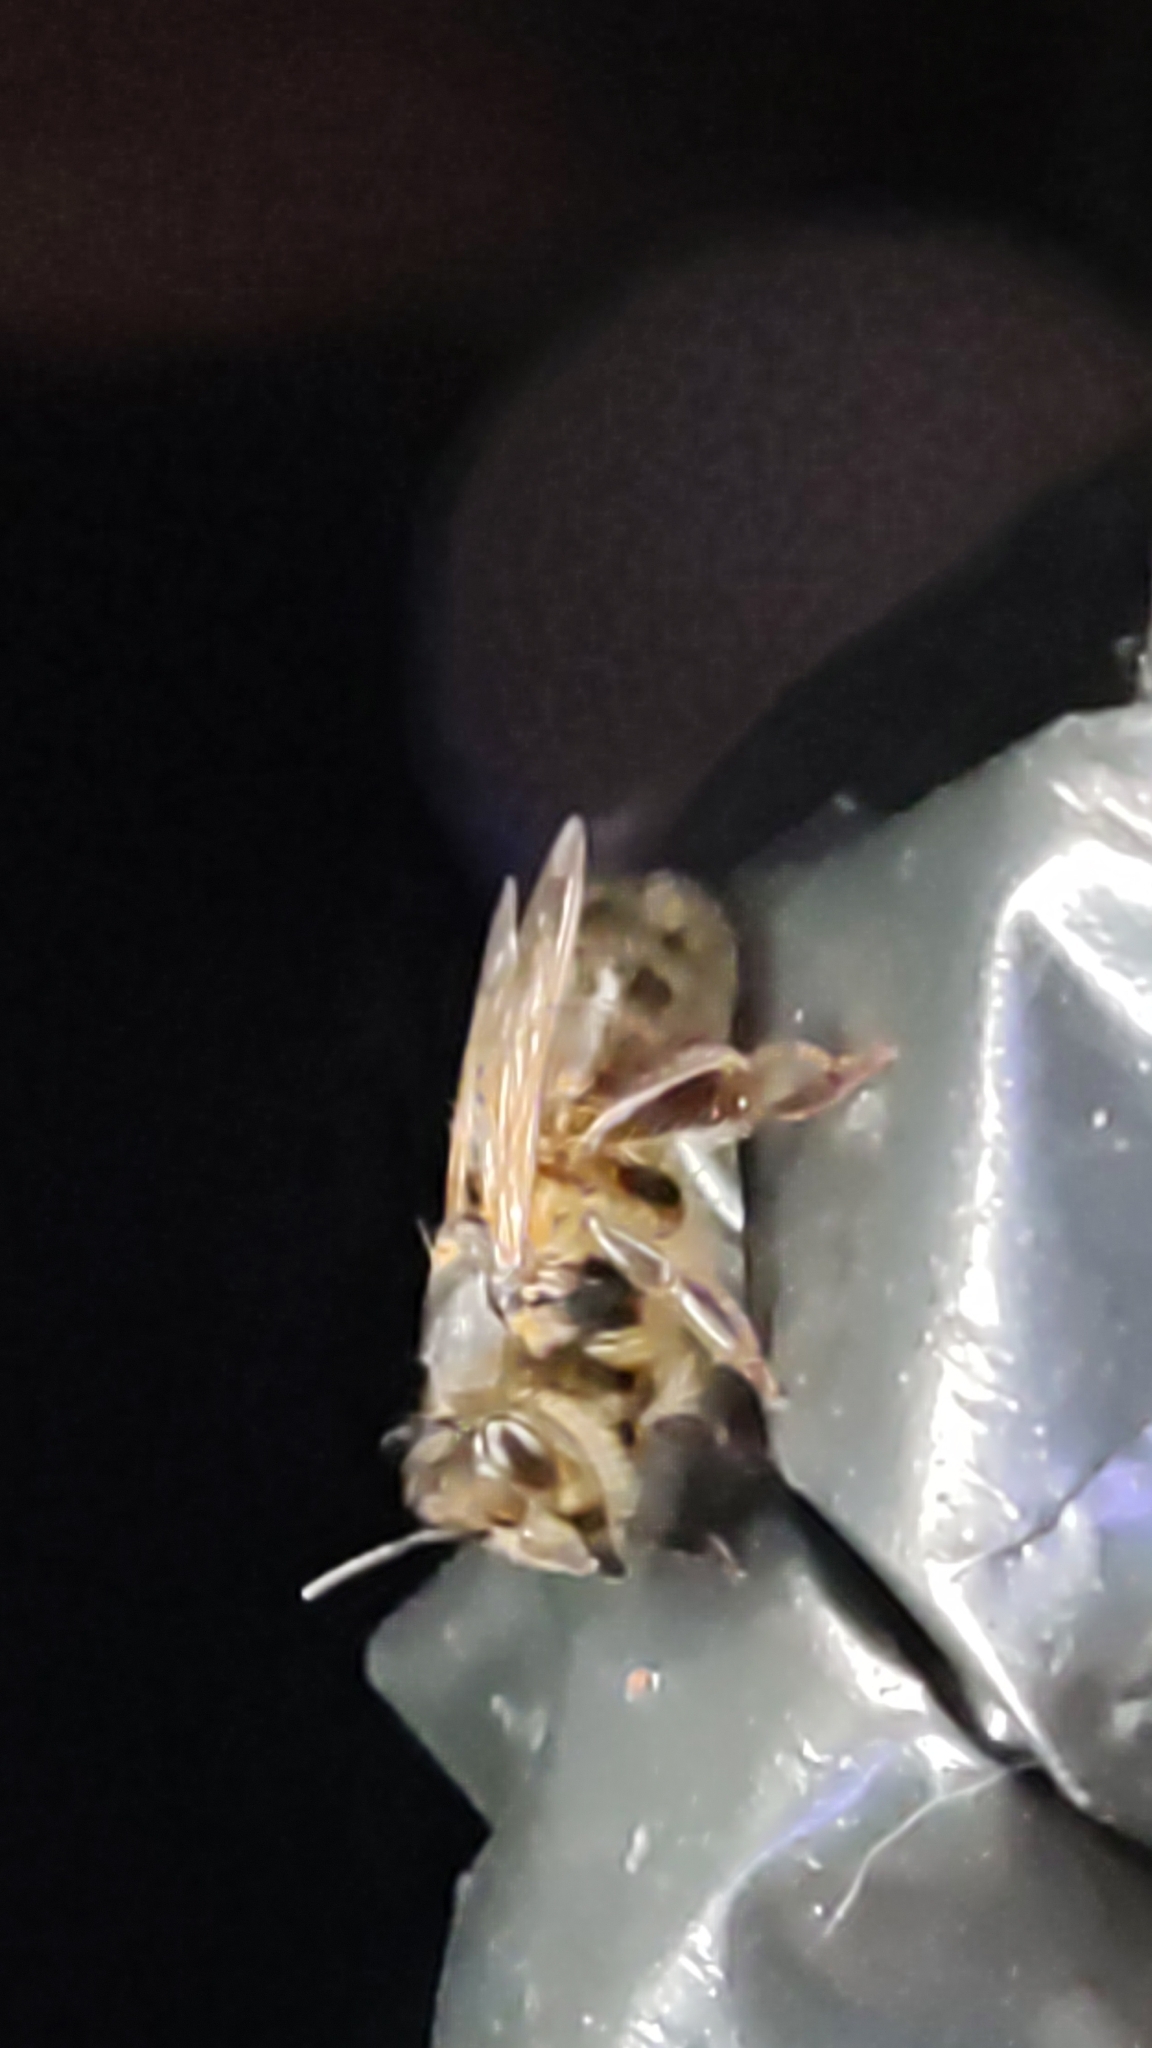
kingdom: Animalia
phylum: Arthropoda
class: Insecta
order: Hymenoptera
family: Apidae
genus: Apis
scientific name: Apis mellifera
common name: Honey bee
